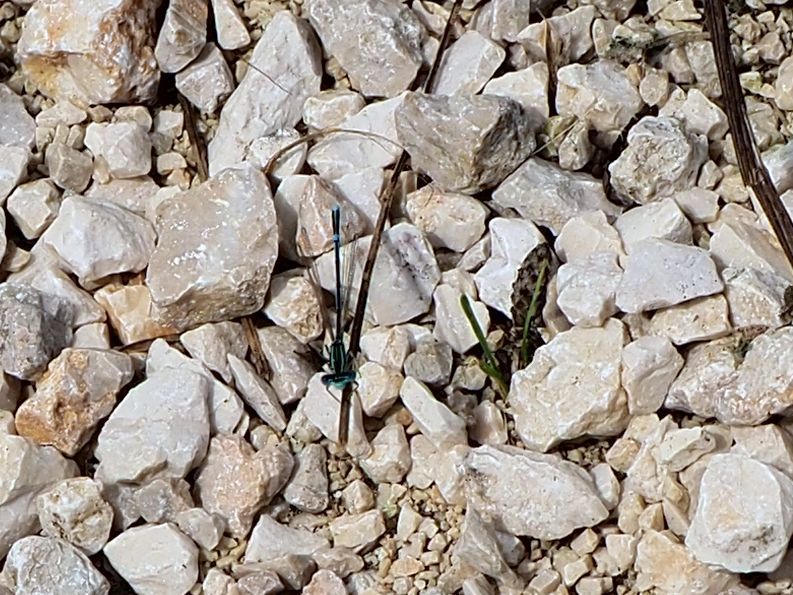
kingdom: Animalia
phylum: Arthropoda
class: Insecta
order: Odonata
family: Platycnemididae
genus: Platycnemis
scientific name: Platycnemis pennipes
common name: White-legged damselfly
